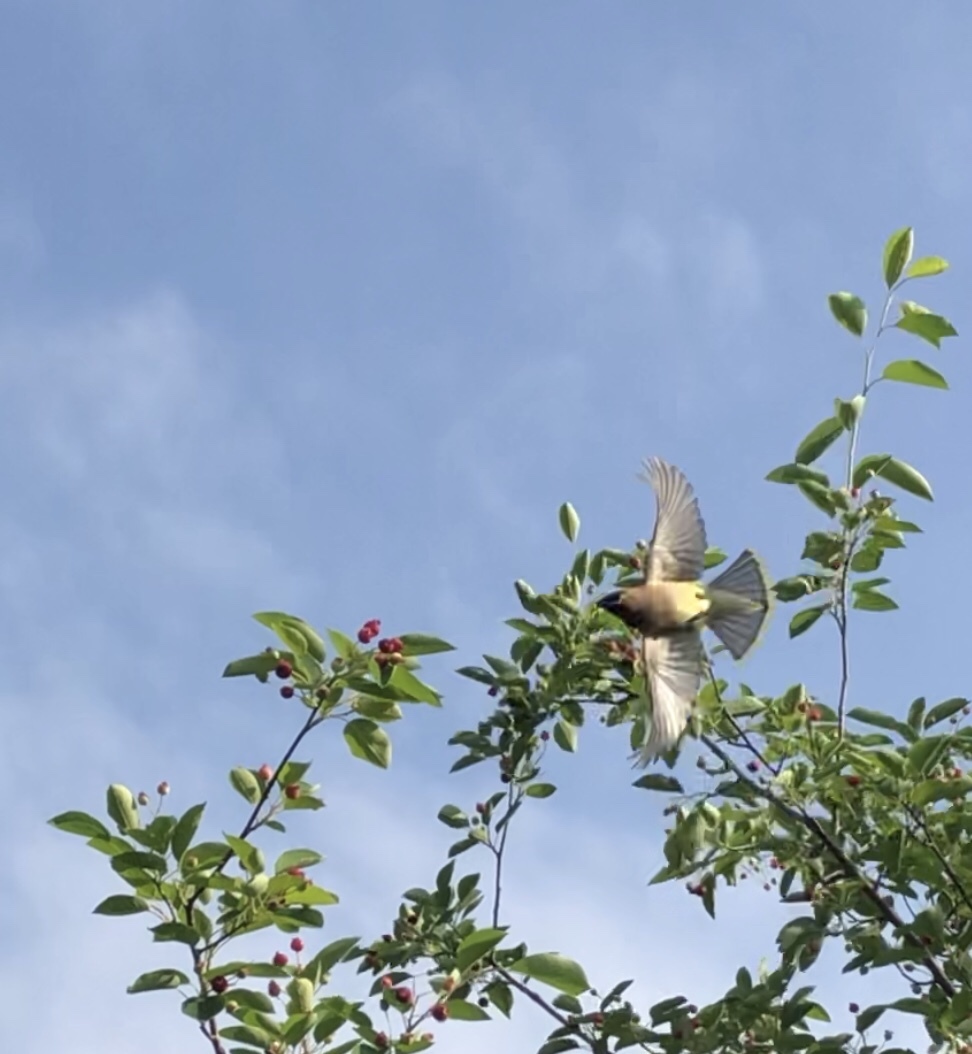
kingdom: Animalia
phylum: Chordata
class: Aves
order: Passeriformes
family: Bombycillidae
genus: Bombycilla
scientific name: Bombycilla cedrorum
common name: Cedar waxwing
